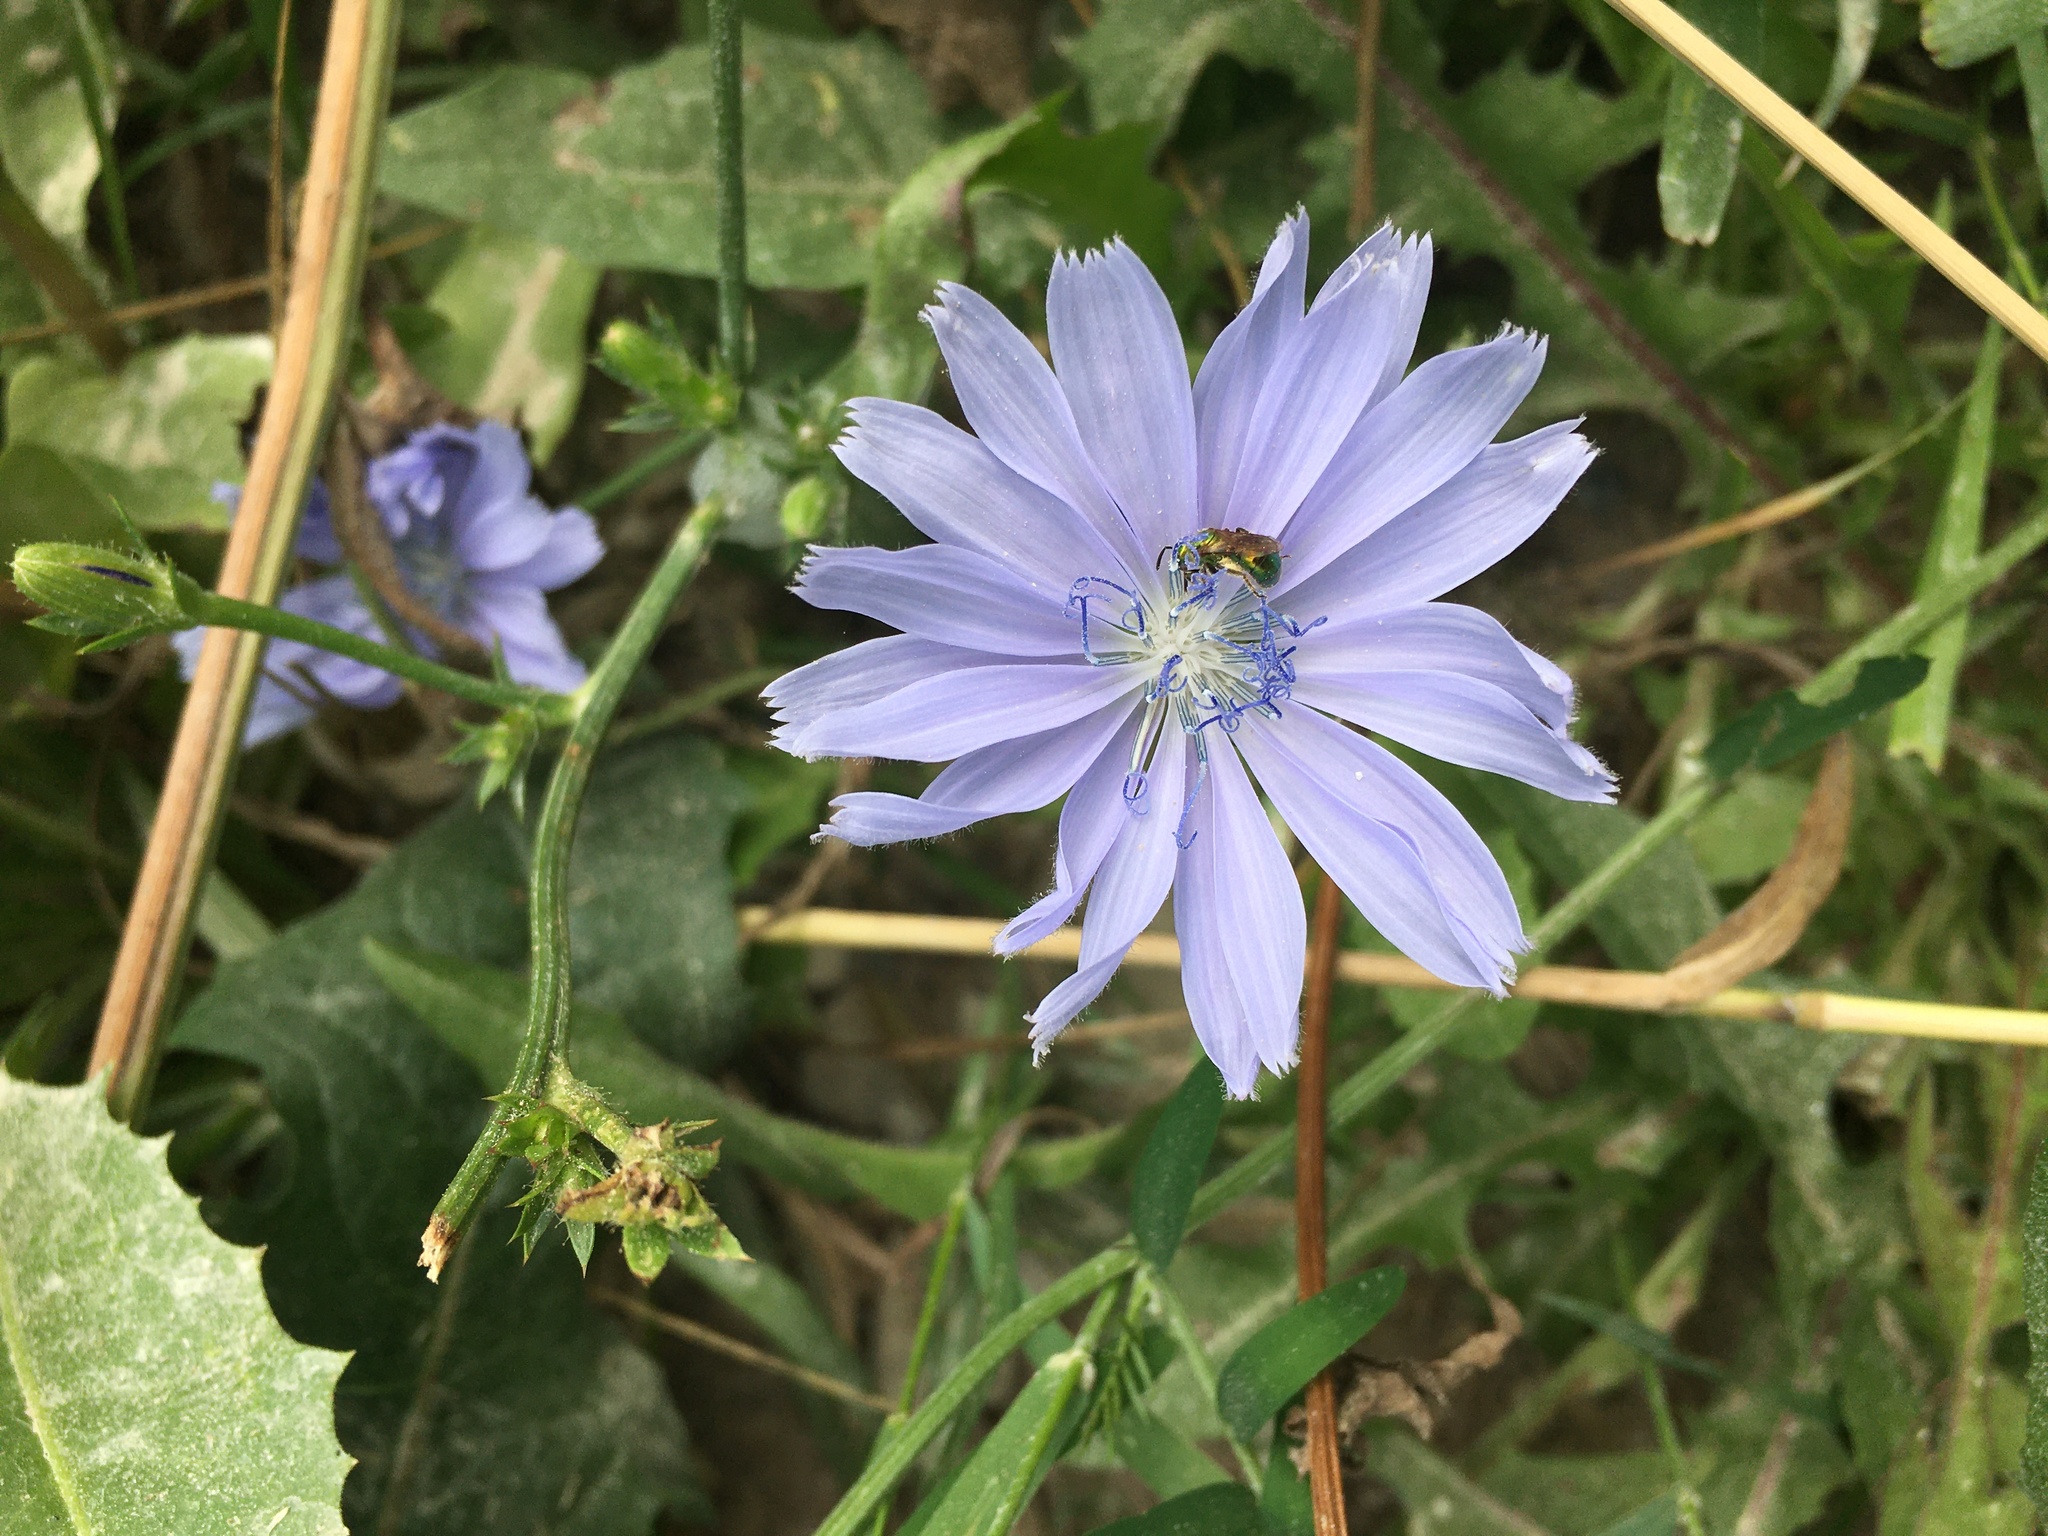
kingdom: Plantae
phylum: Tracheophyta
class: Magnoliopsida
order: Asterales
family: Asteraceae
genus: Cichorium
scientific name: Cichorium intybus
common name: Chicory
